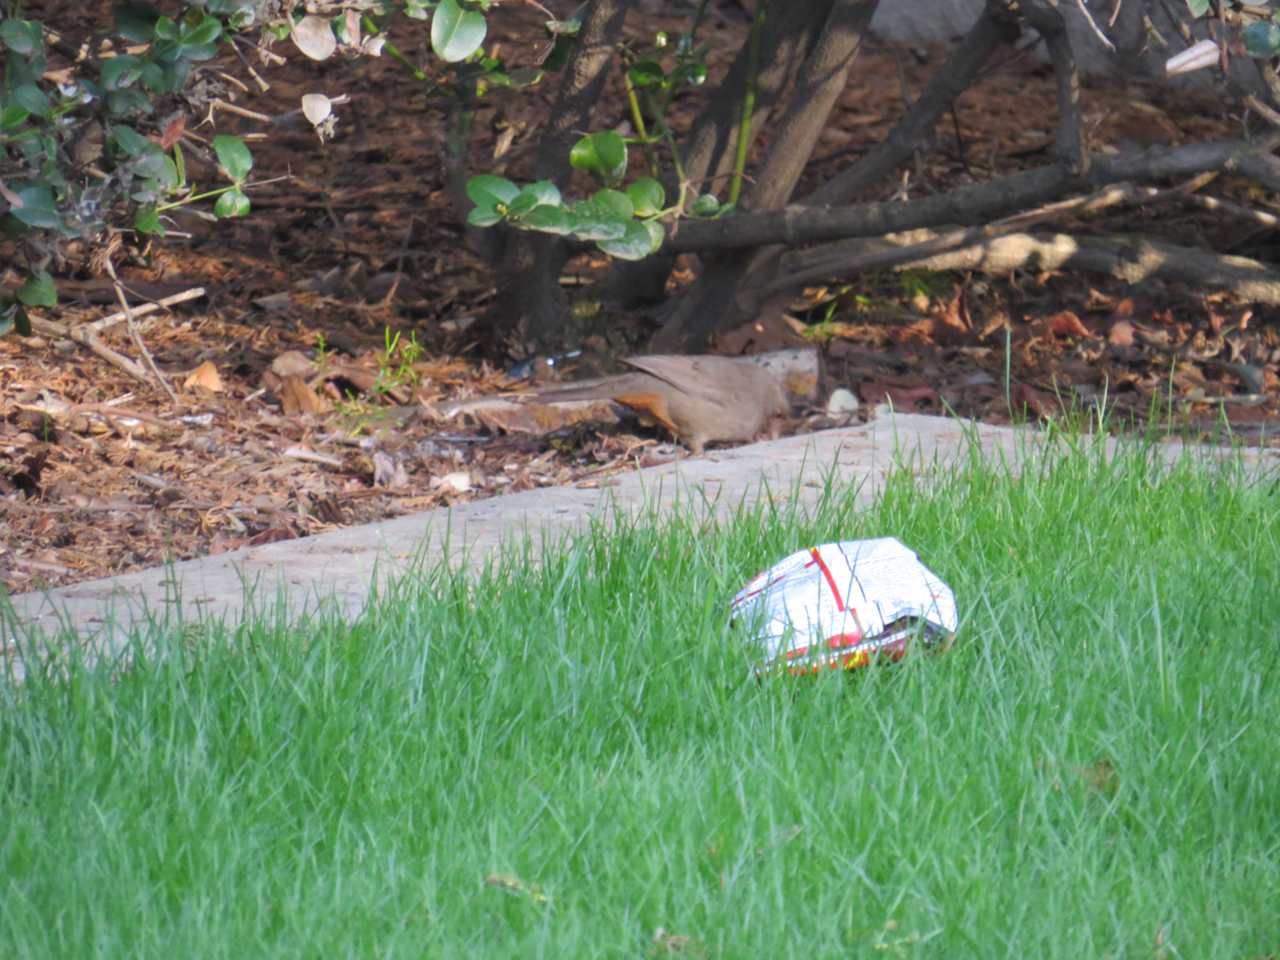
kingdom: Animalia
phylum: Chordata
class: Aves
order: Passeriformes
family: Passerellidae
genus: Melozone
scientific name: Melozone crissalis
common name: California towhee
